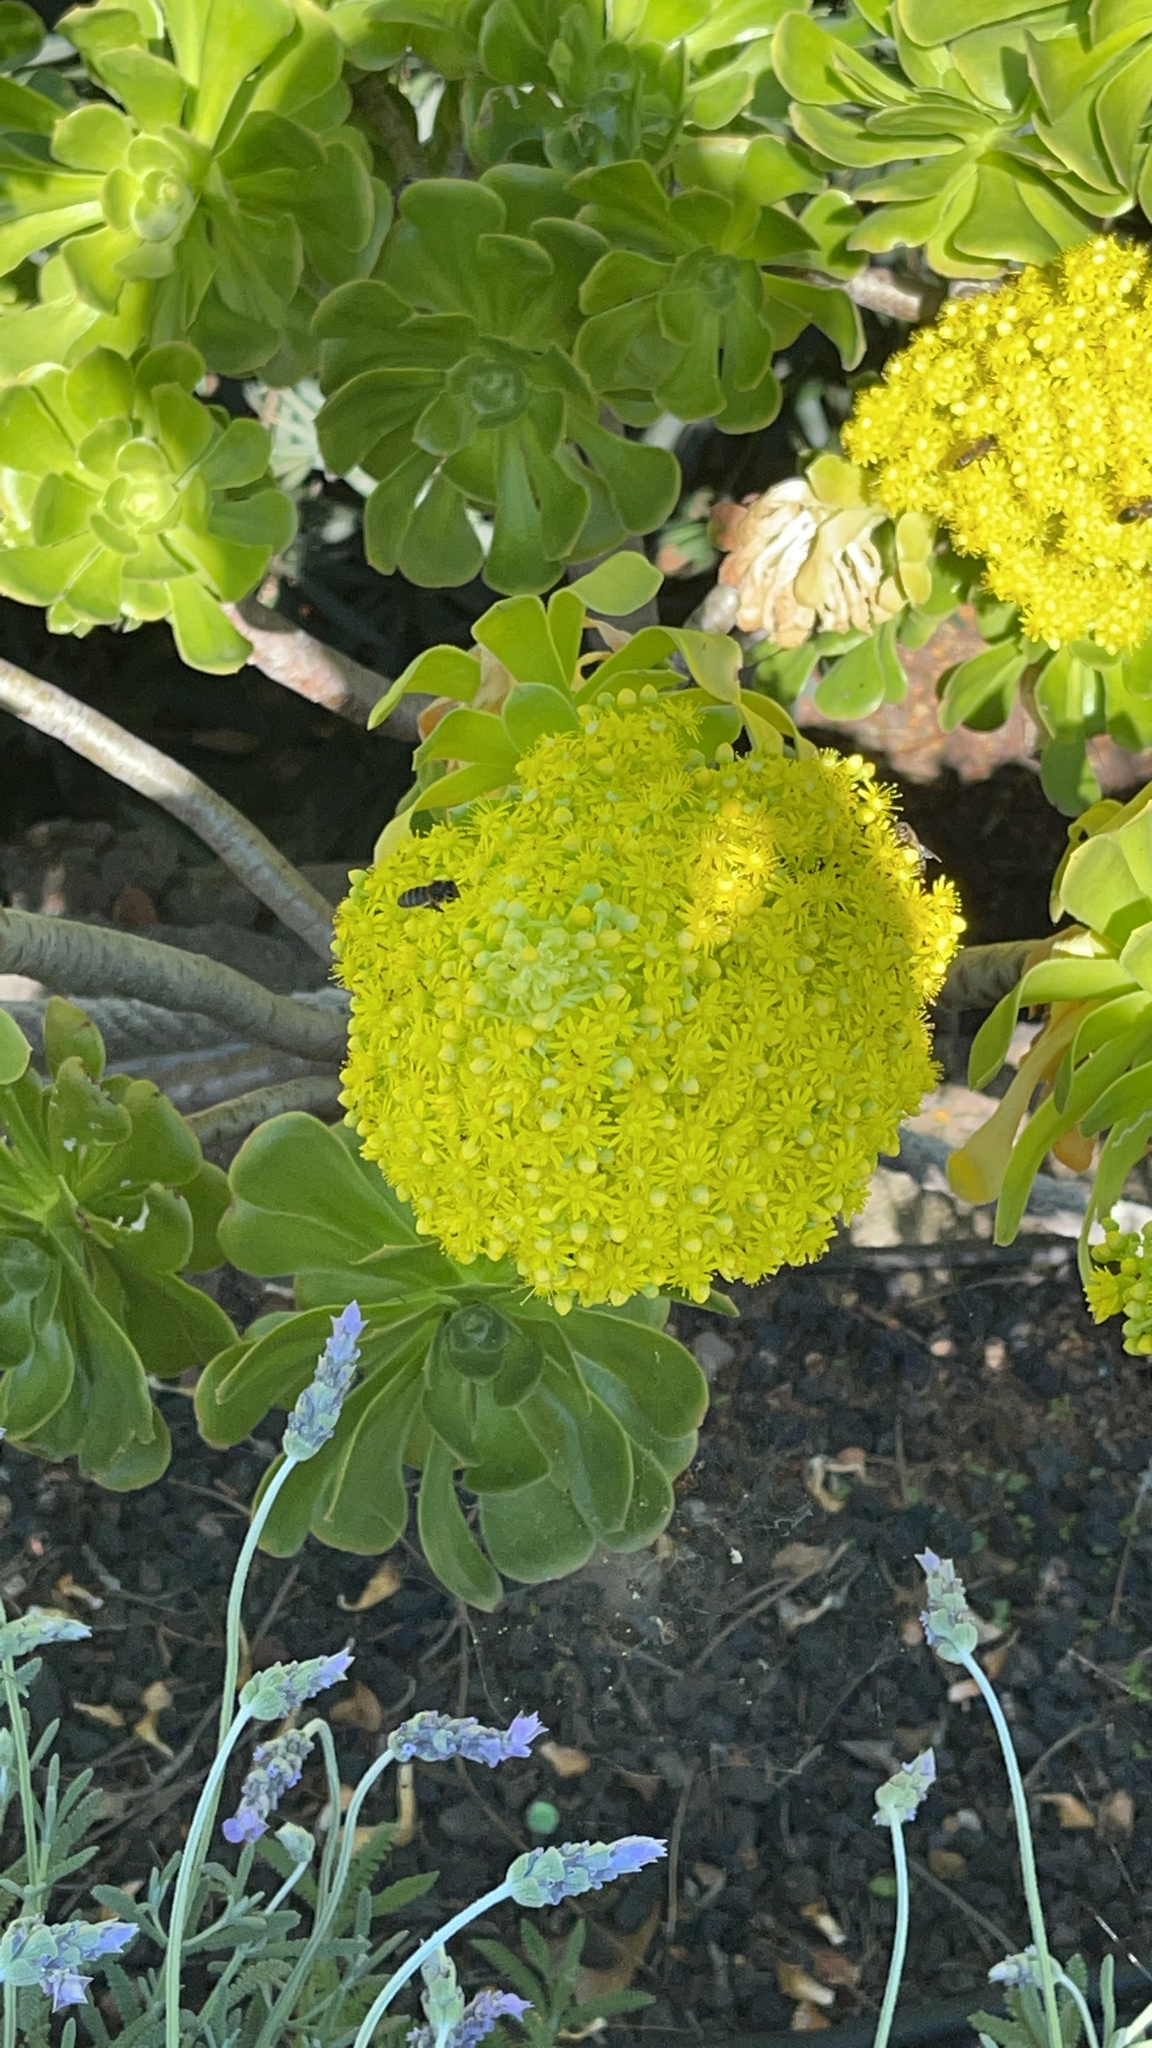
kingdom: Plantae
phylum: Tracheophyta
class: Magnoliopsida
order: Saxifragales
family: Crassulaceae
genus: Aeonium
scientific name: Aeonium arboreum
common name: Tree aeonium
